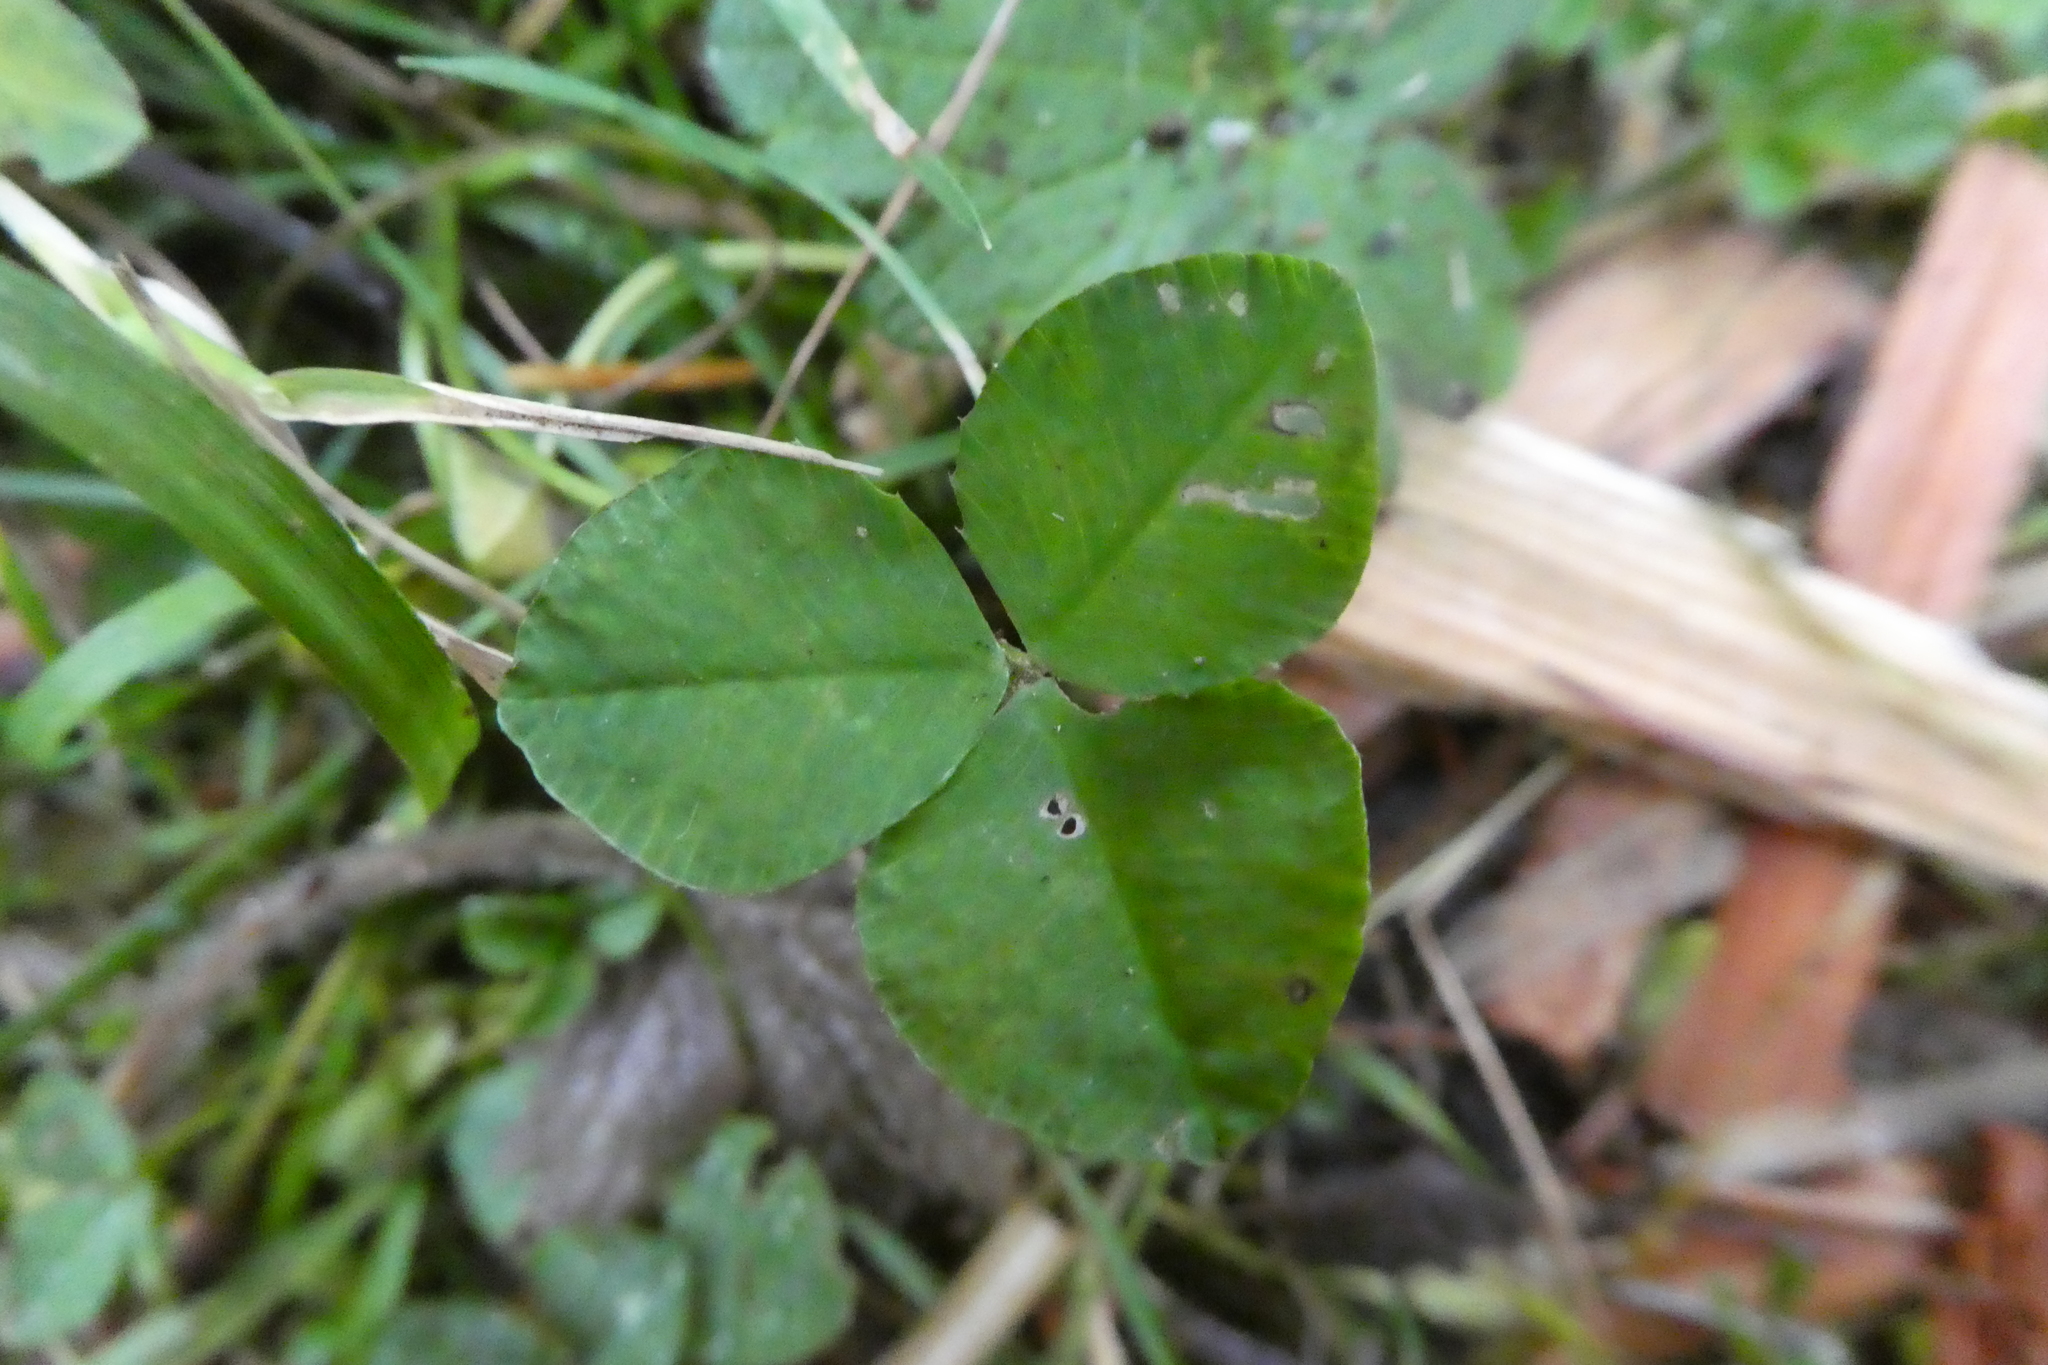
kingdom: Plantae
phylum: Tracheophyta
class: Magnoliopsida
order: Fabales
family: Fabaceae
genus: Trifolium
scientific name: Trifolium repens
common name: White clover
